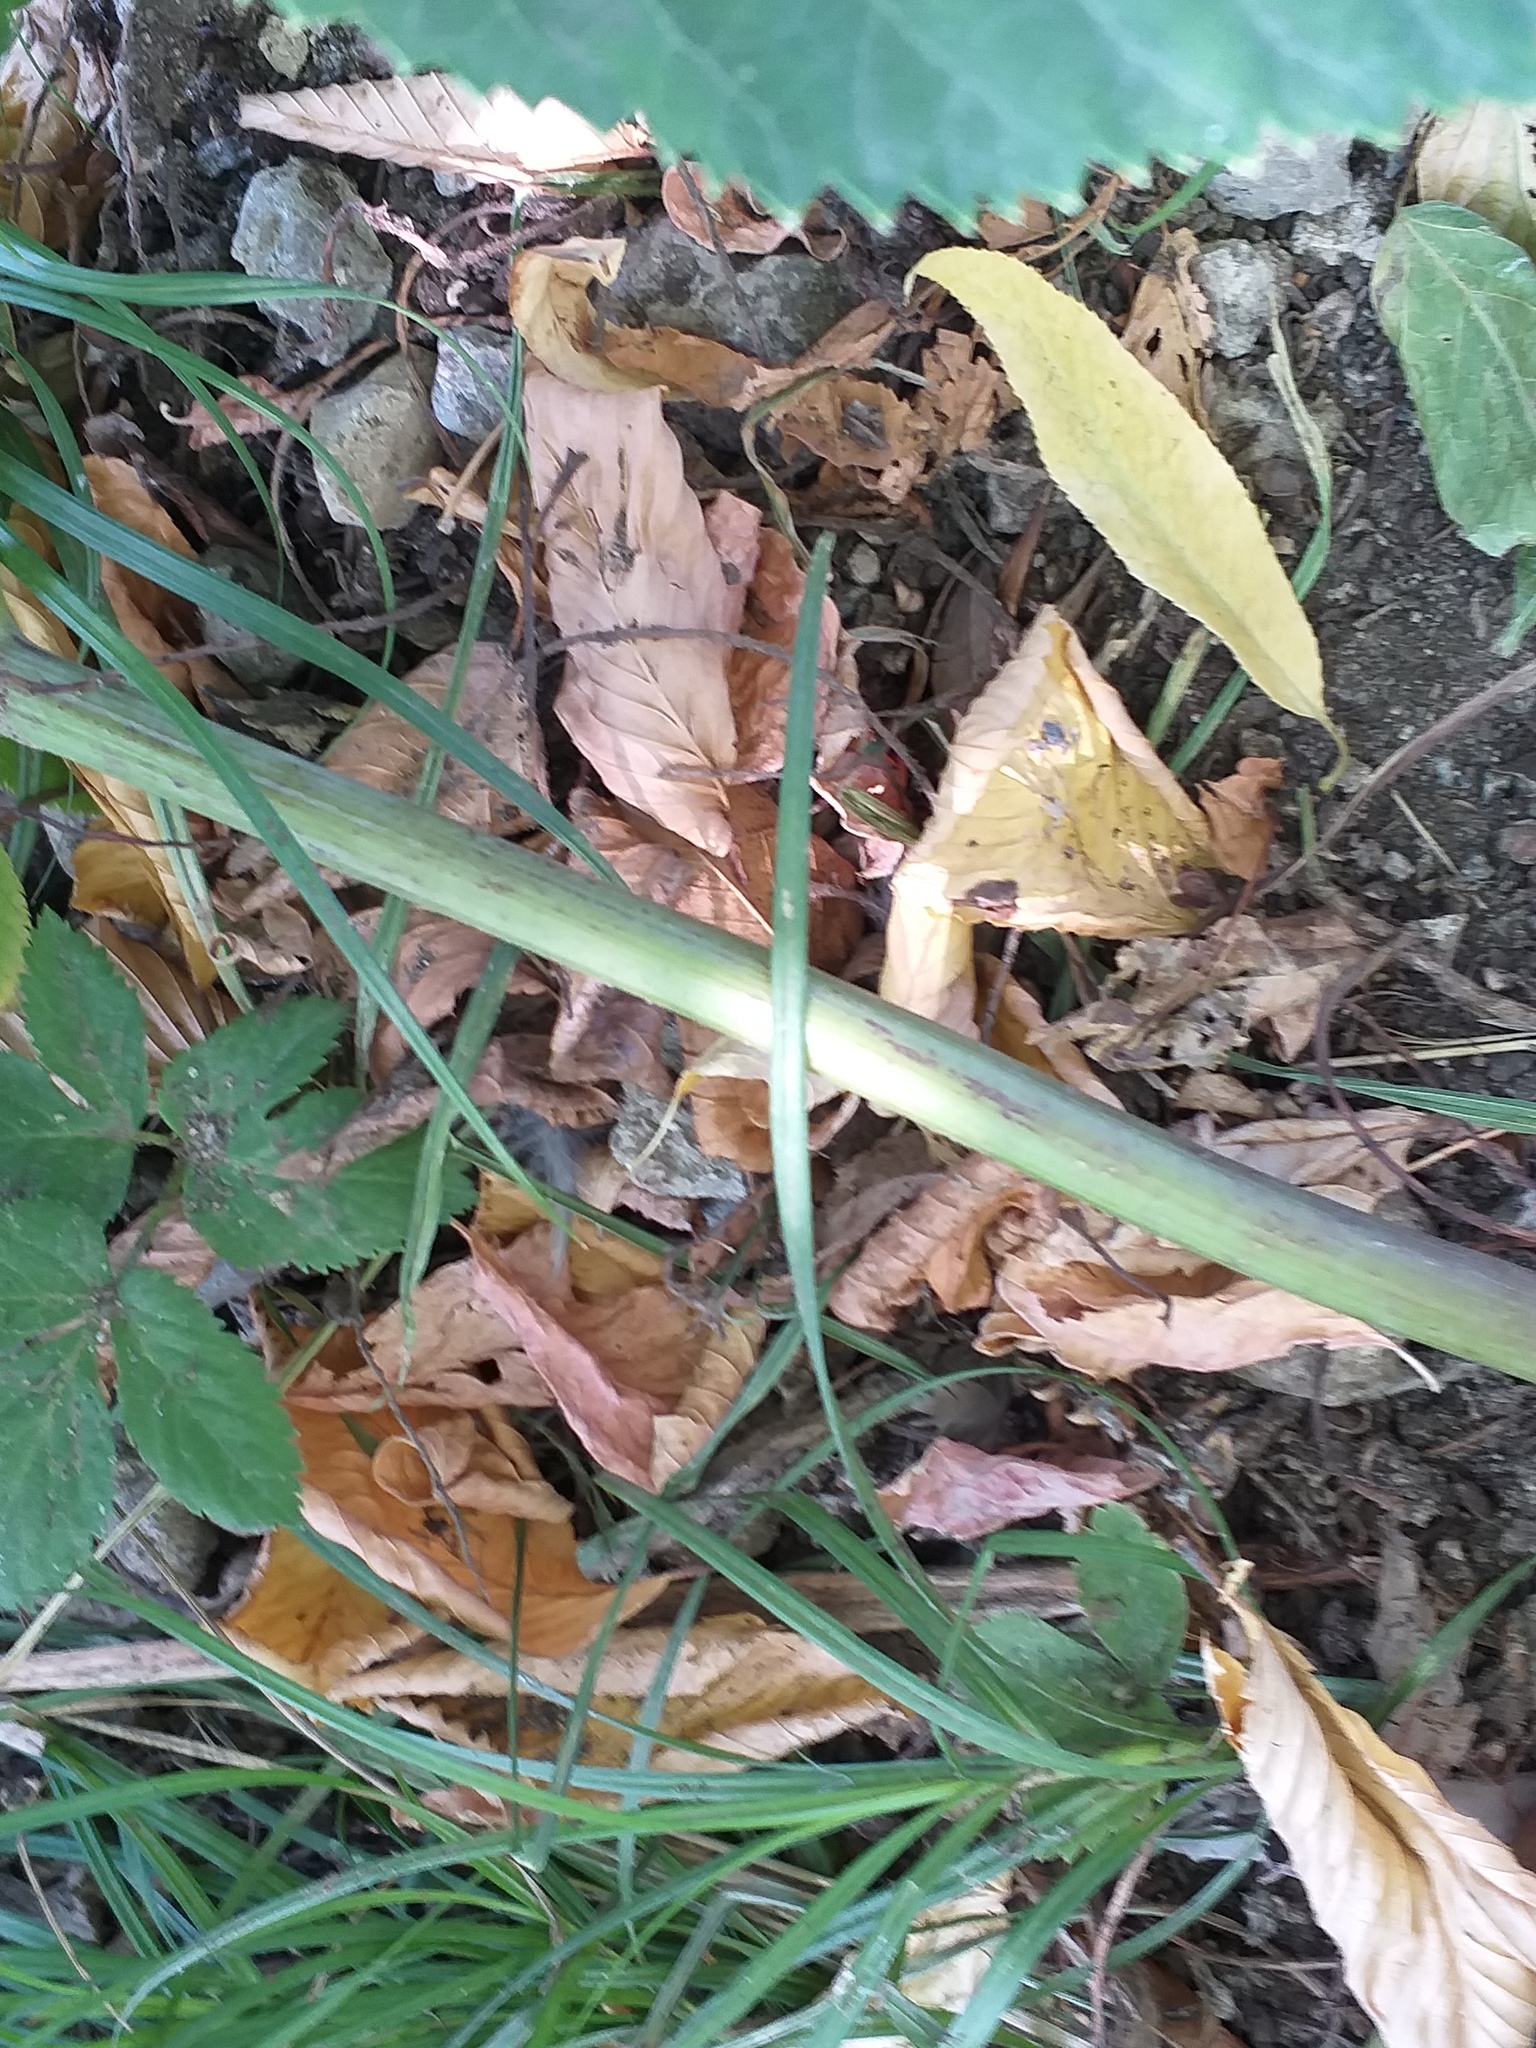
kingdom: Plantae
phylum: Tracheophyta
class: Magnoliopsida
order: Apiales
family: Apiaceae
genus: Angelica
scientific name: Angelica archangelica
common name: Garden angelica
